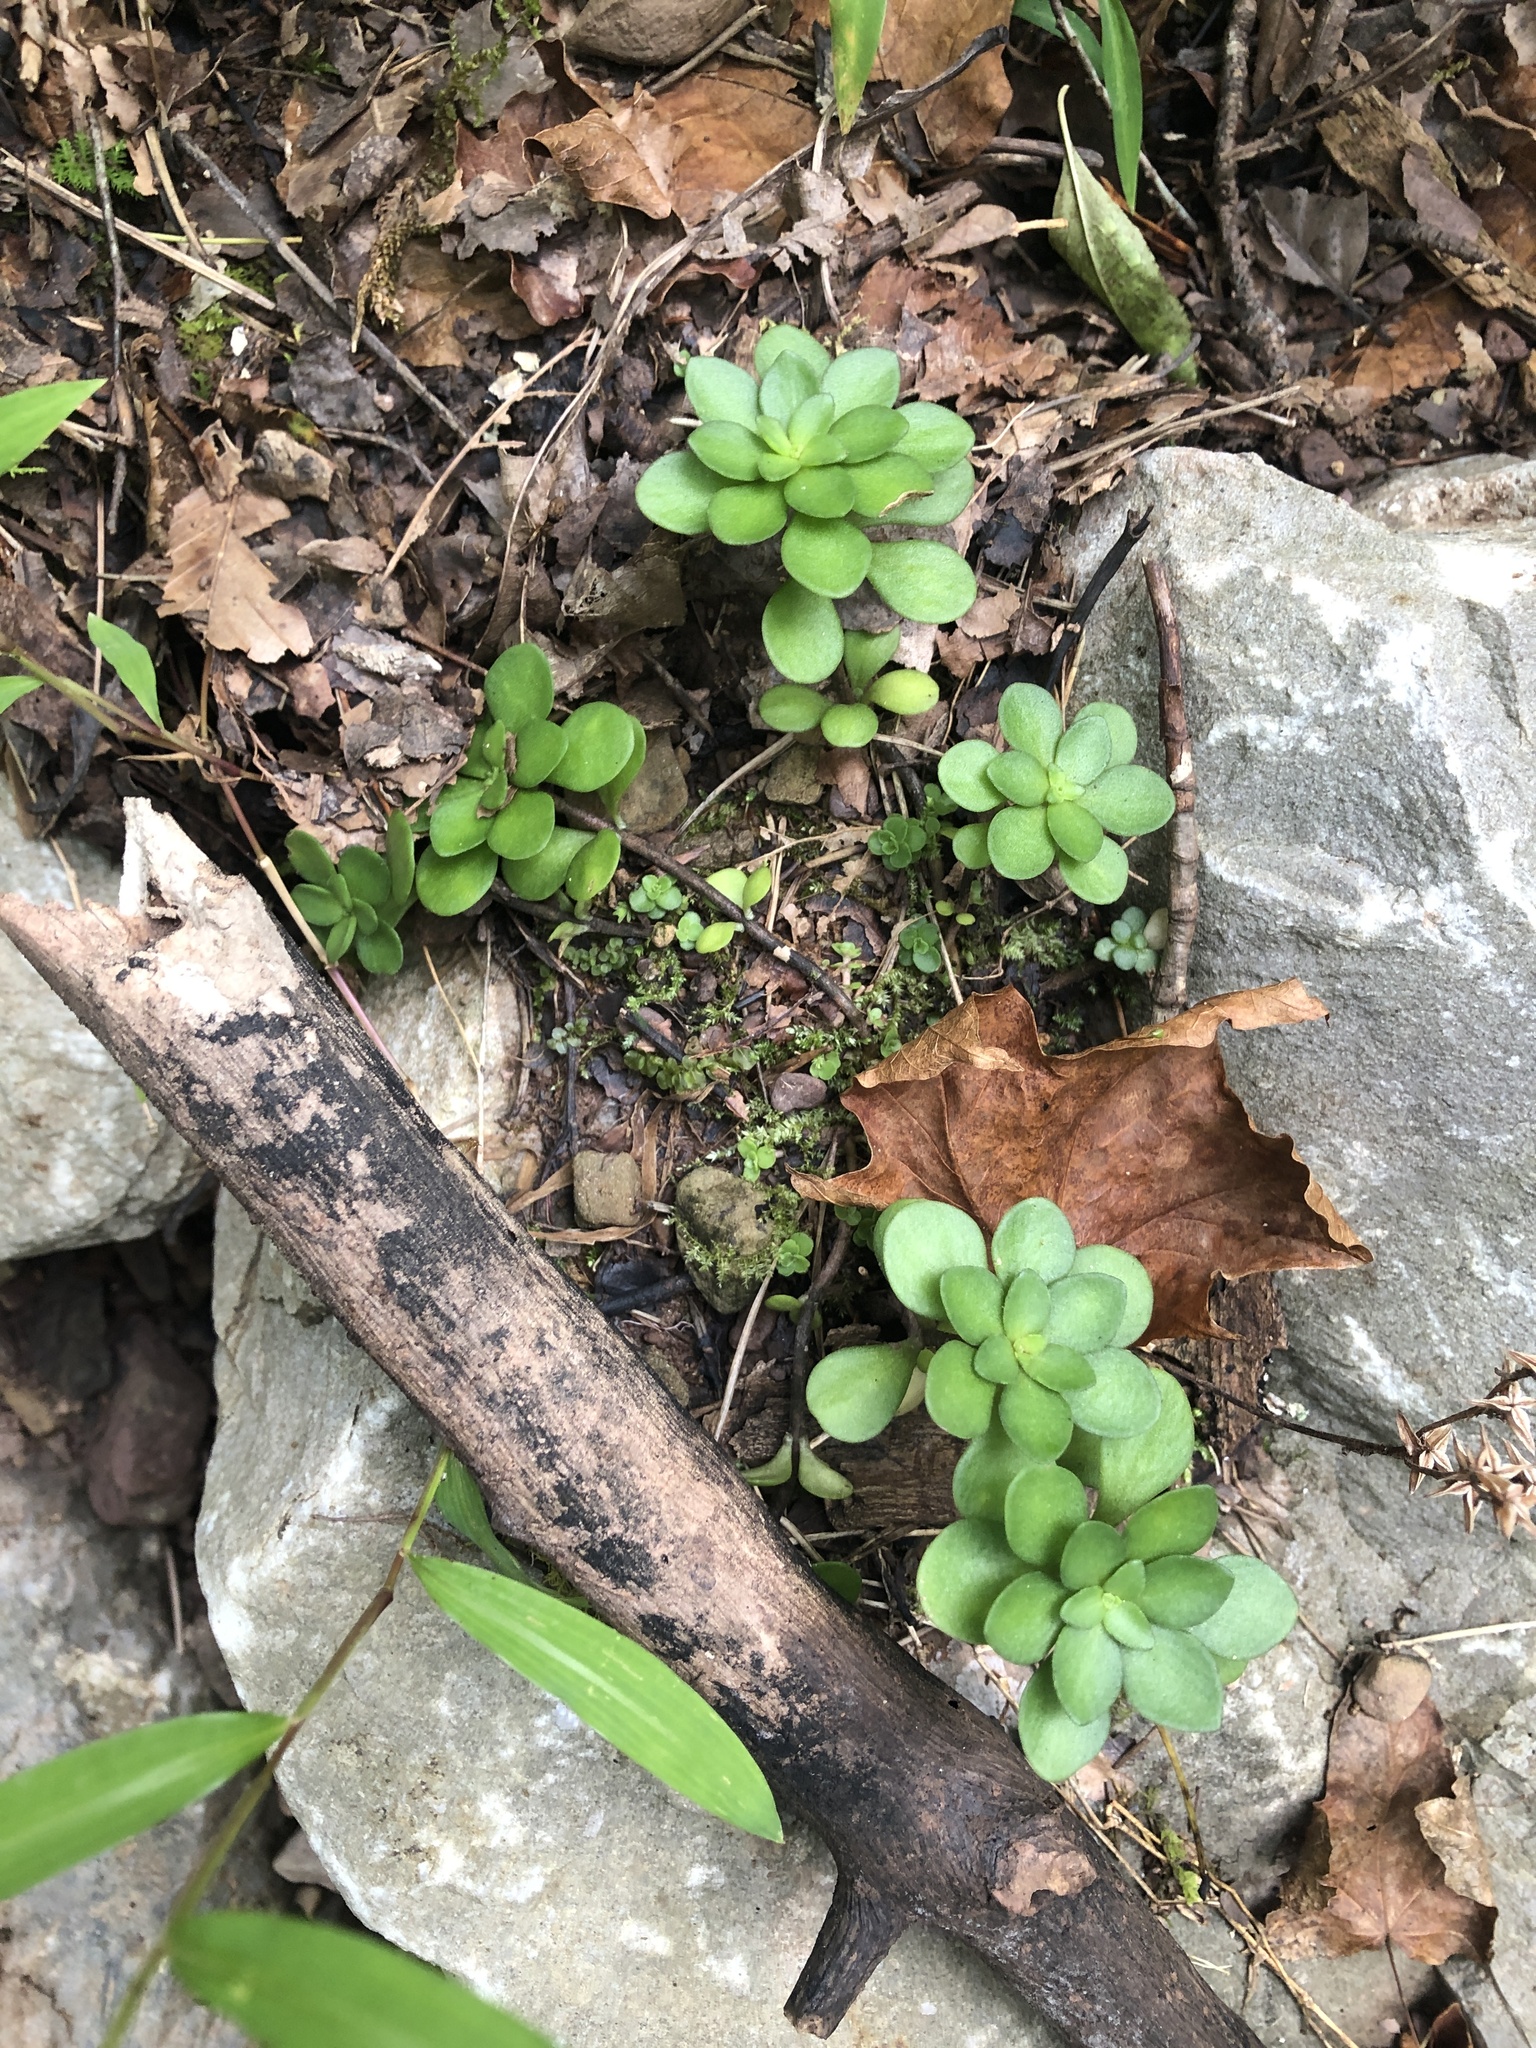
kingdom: Plantae
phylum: Tracheophyta
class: Magnoliopsida
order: Saxifragales
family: Crassulaceae
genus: Sedum
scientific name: Sedum ternatum
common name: Wild stonecrop
